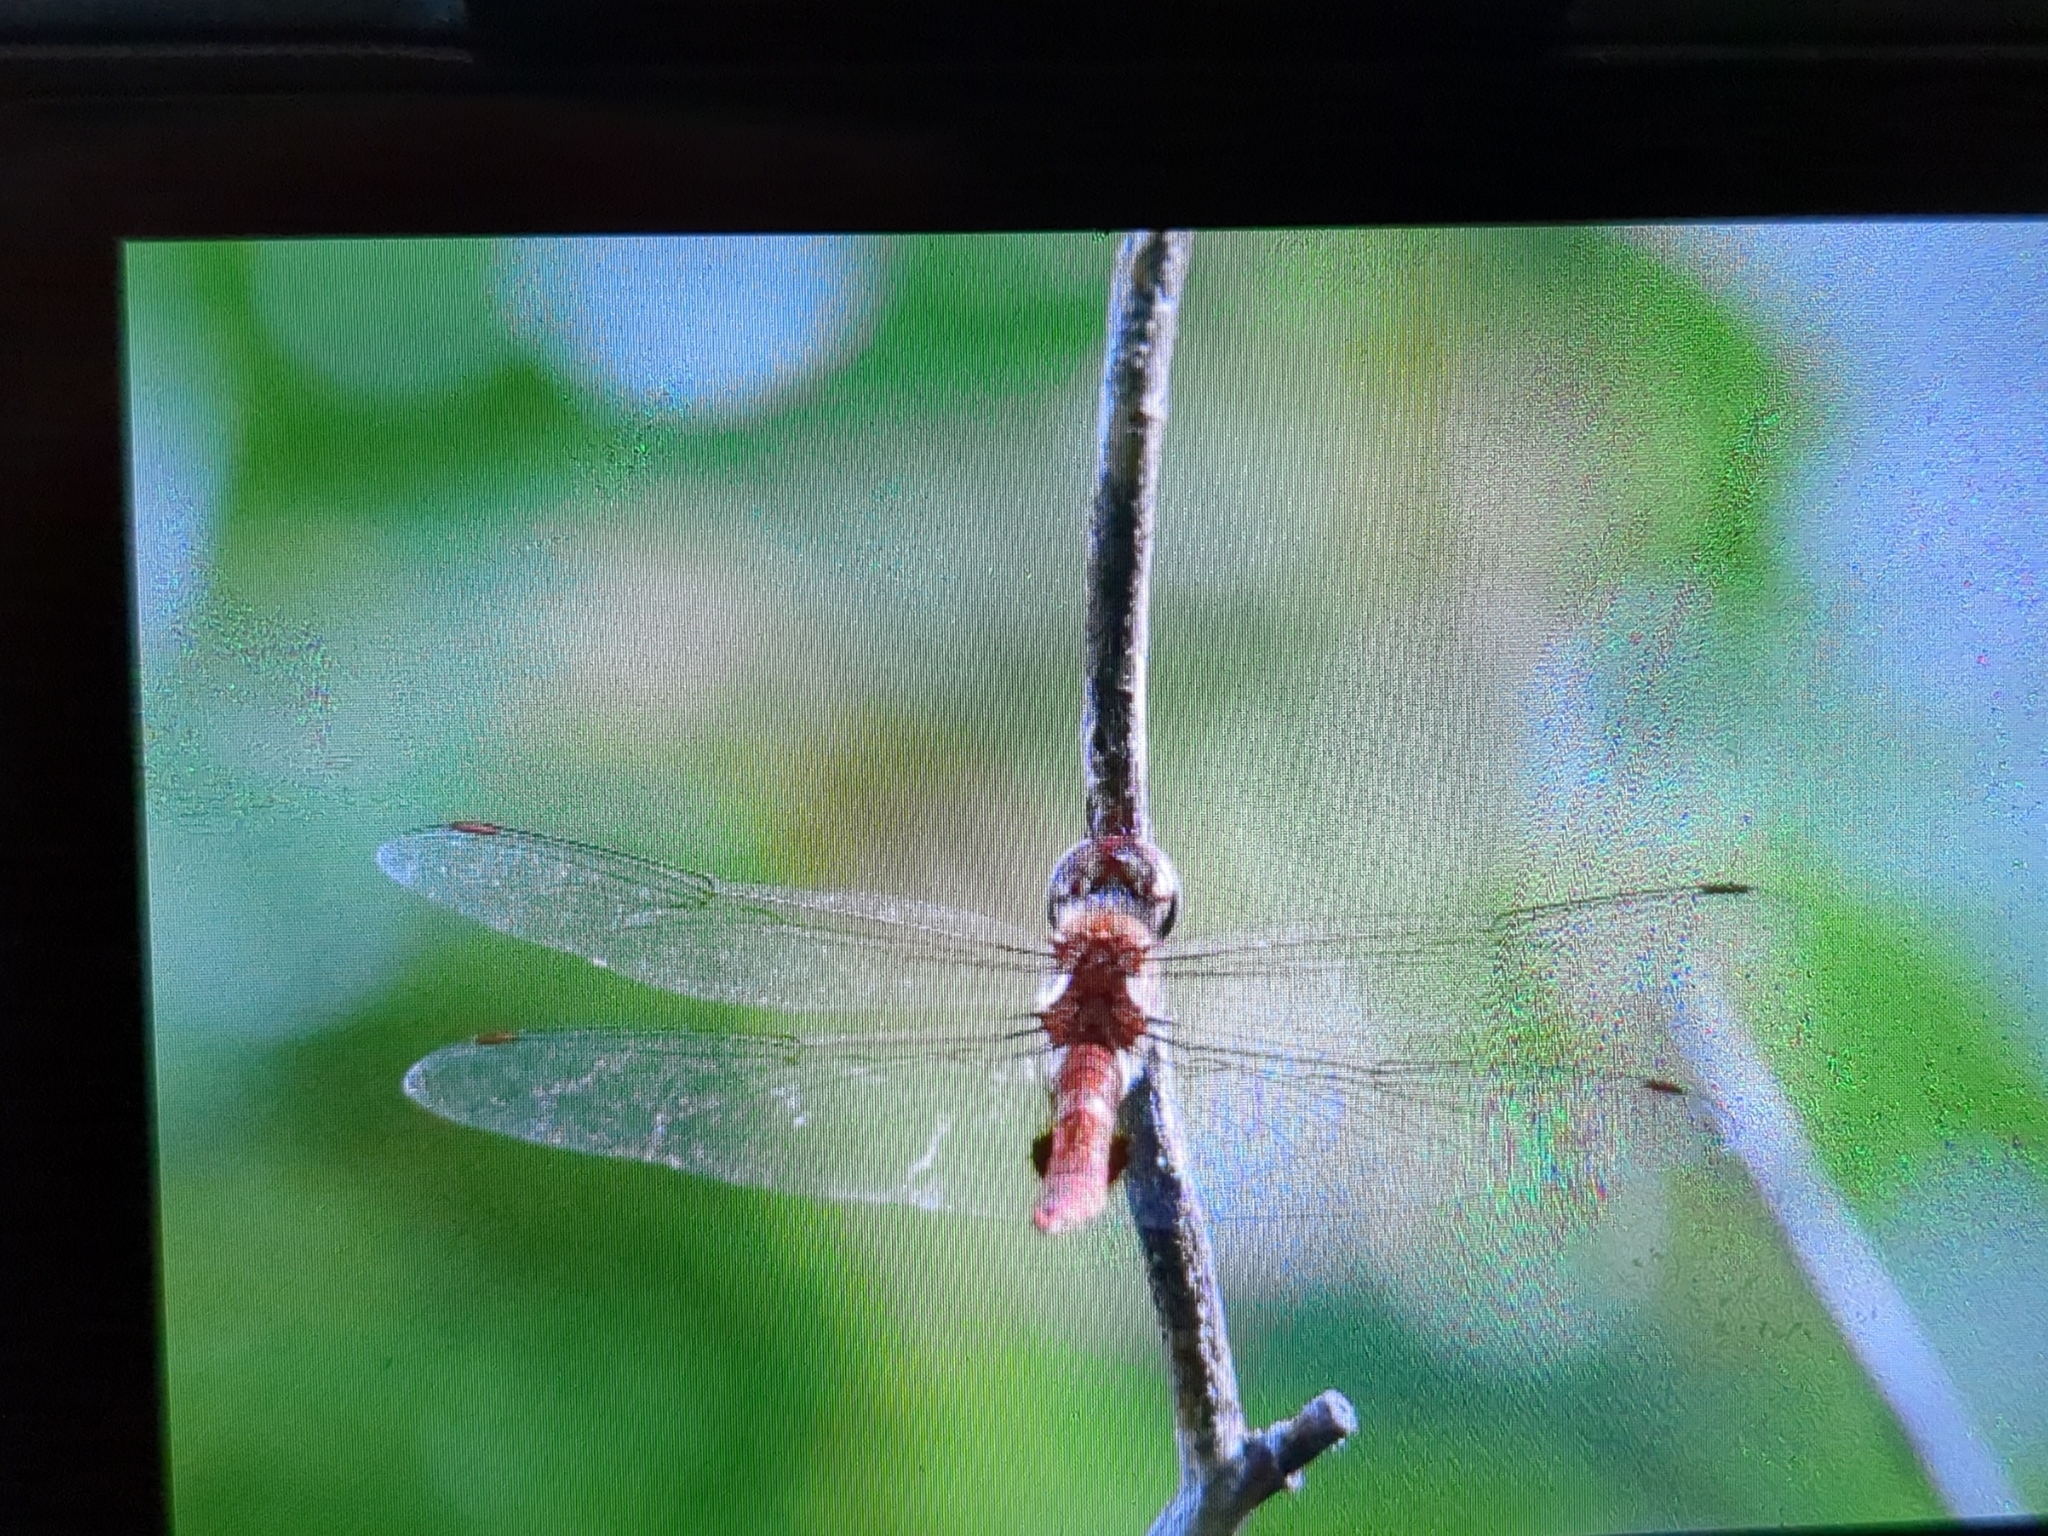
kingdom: Animalia
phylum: Arthropoda
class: Insecta
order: Odonata
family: Libellulidae
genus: Pantala
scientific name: Pantala hymenaea
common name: Spot-winged glider
